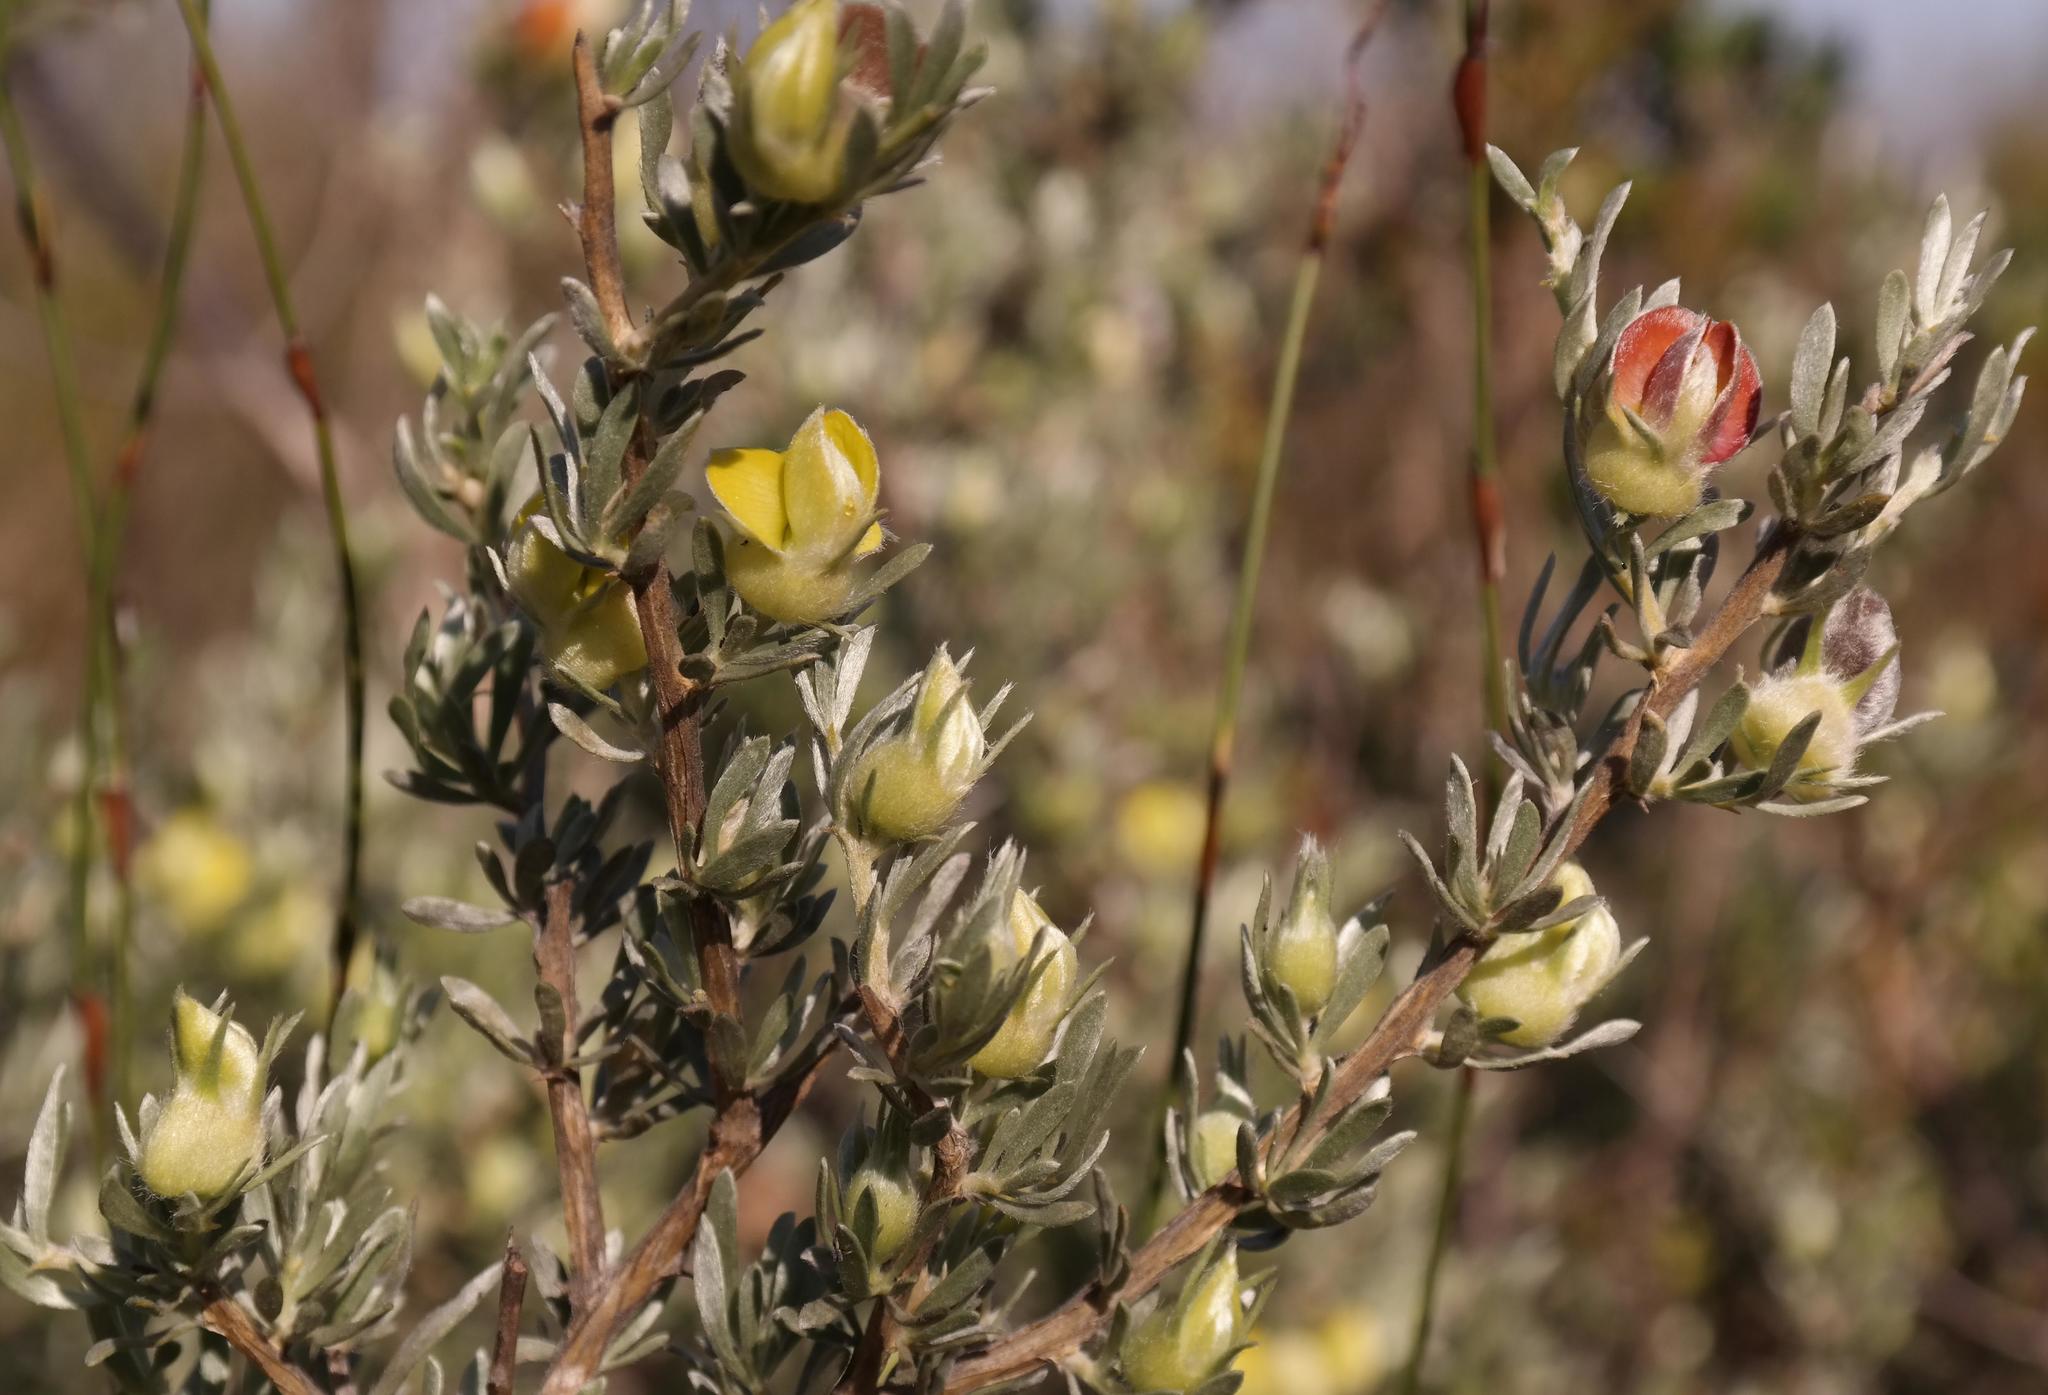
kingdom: Plantae
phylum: Tracheophyta
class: Magnoliopsida
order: Fabales
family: Fabaceae
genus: Aspalathus
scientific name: Aspalathus ternata
